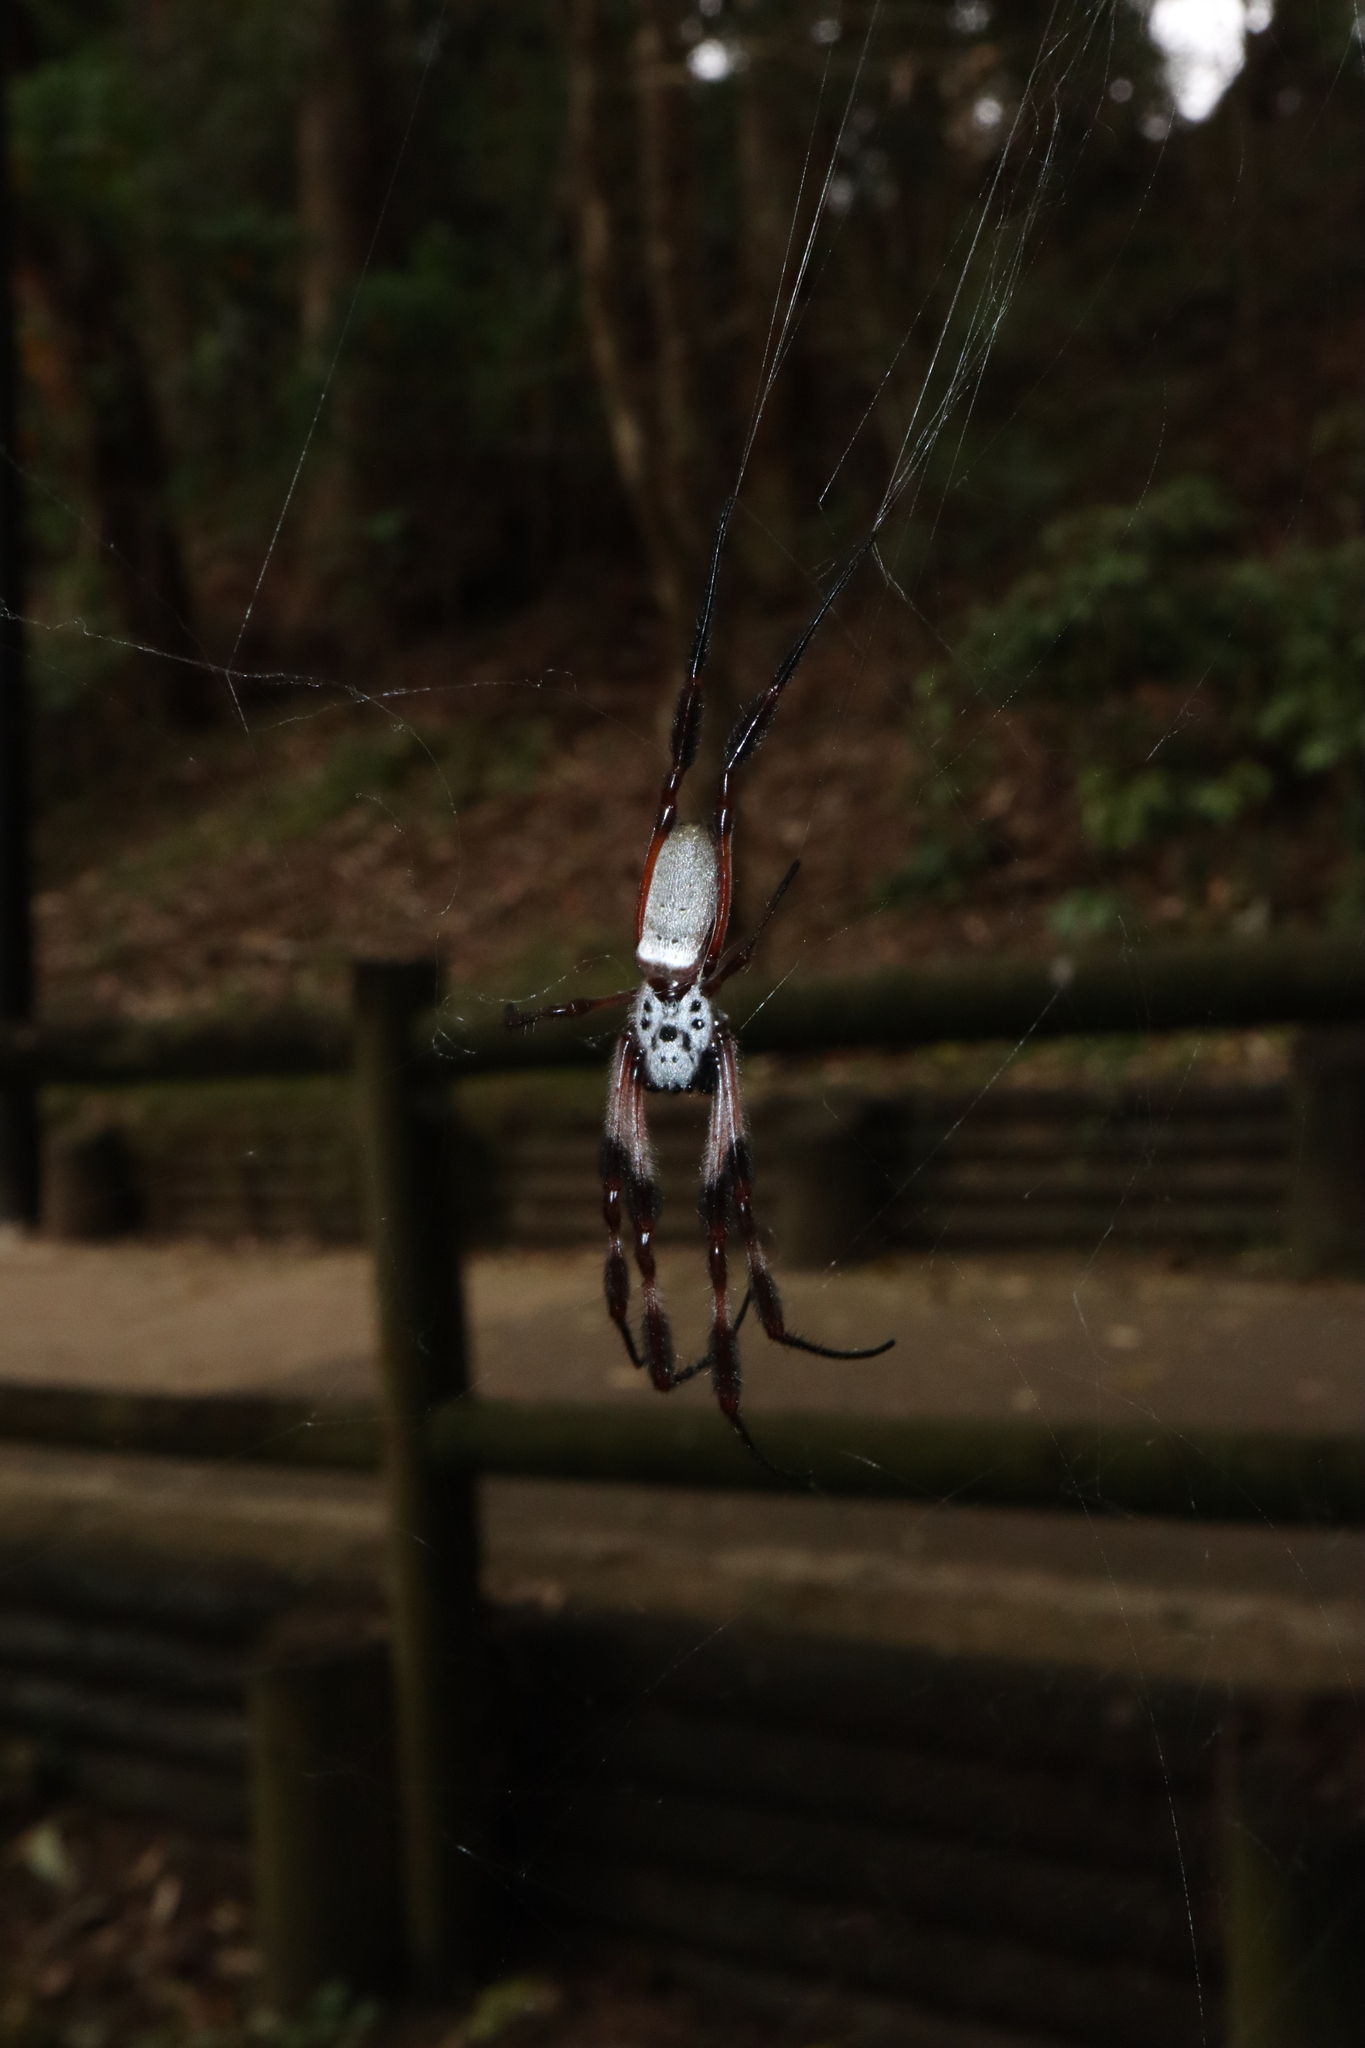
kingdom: Animalia
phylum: Arthropoda
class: Arachnida
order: Araneae
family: Araneidae
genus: Trichonephila
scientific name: Trichonephila edulis
